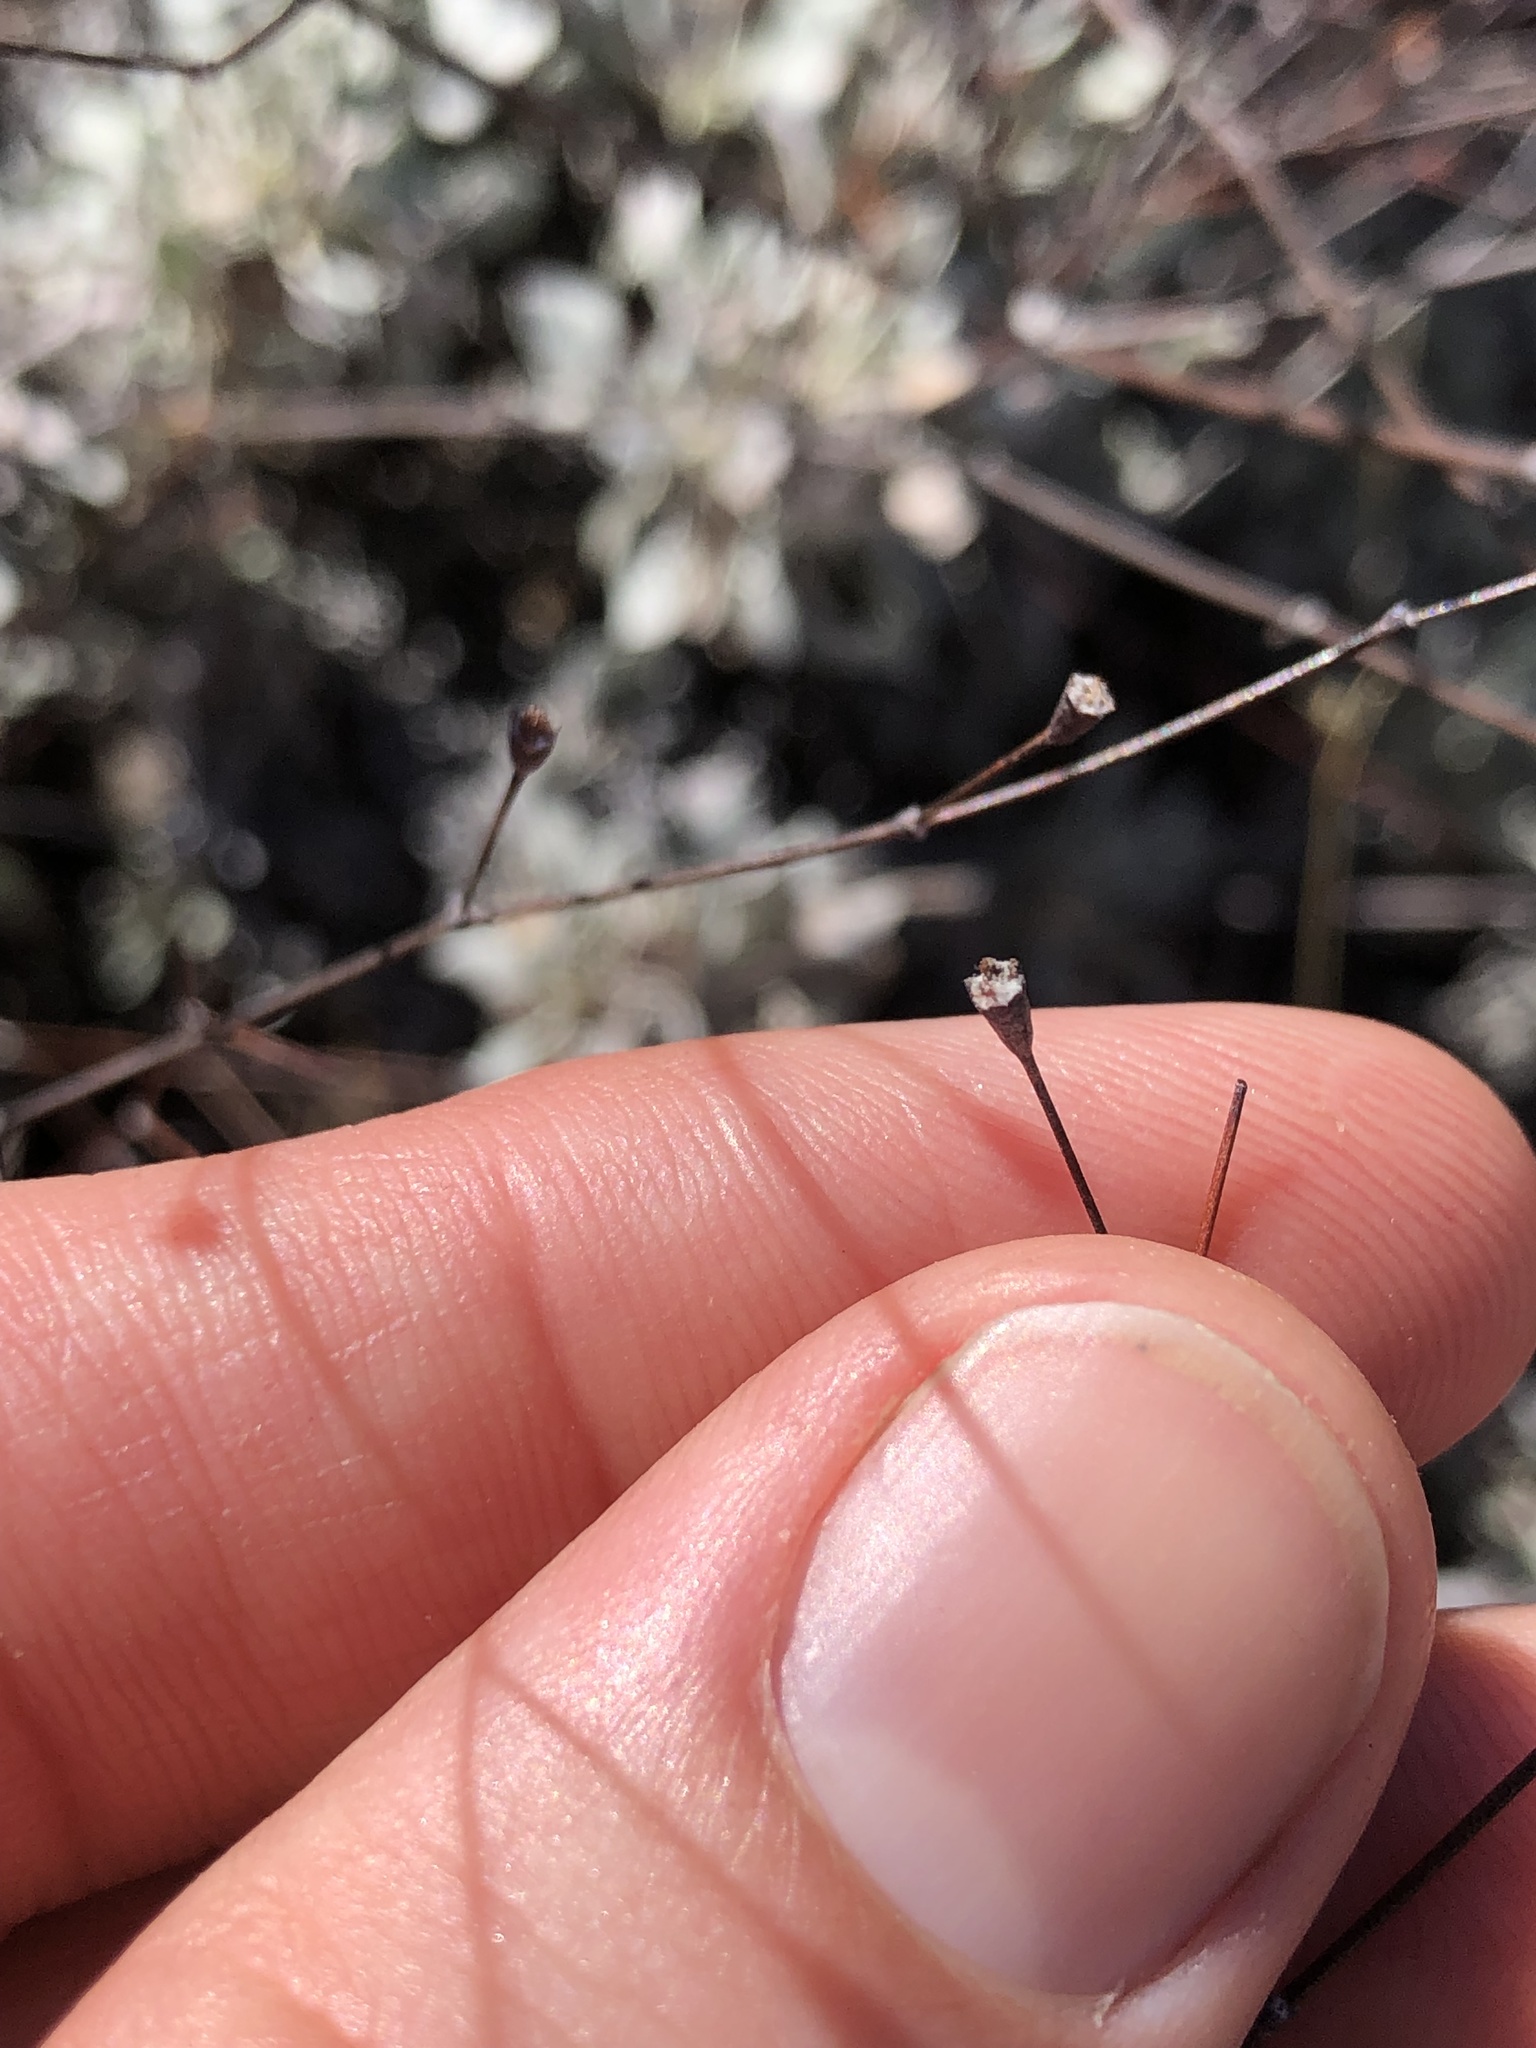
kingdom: Plantae
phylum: Tracheophyta
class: Magnoliopsida
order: Caryophyllales
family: Polygonaceae
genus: Eriogonum
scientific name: Eriogonum graniticum
